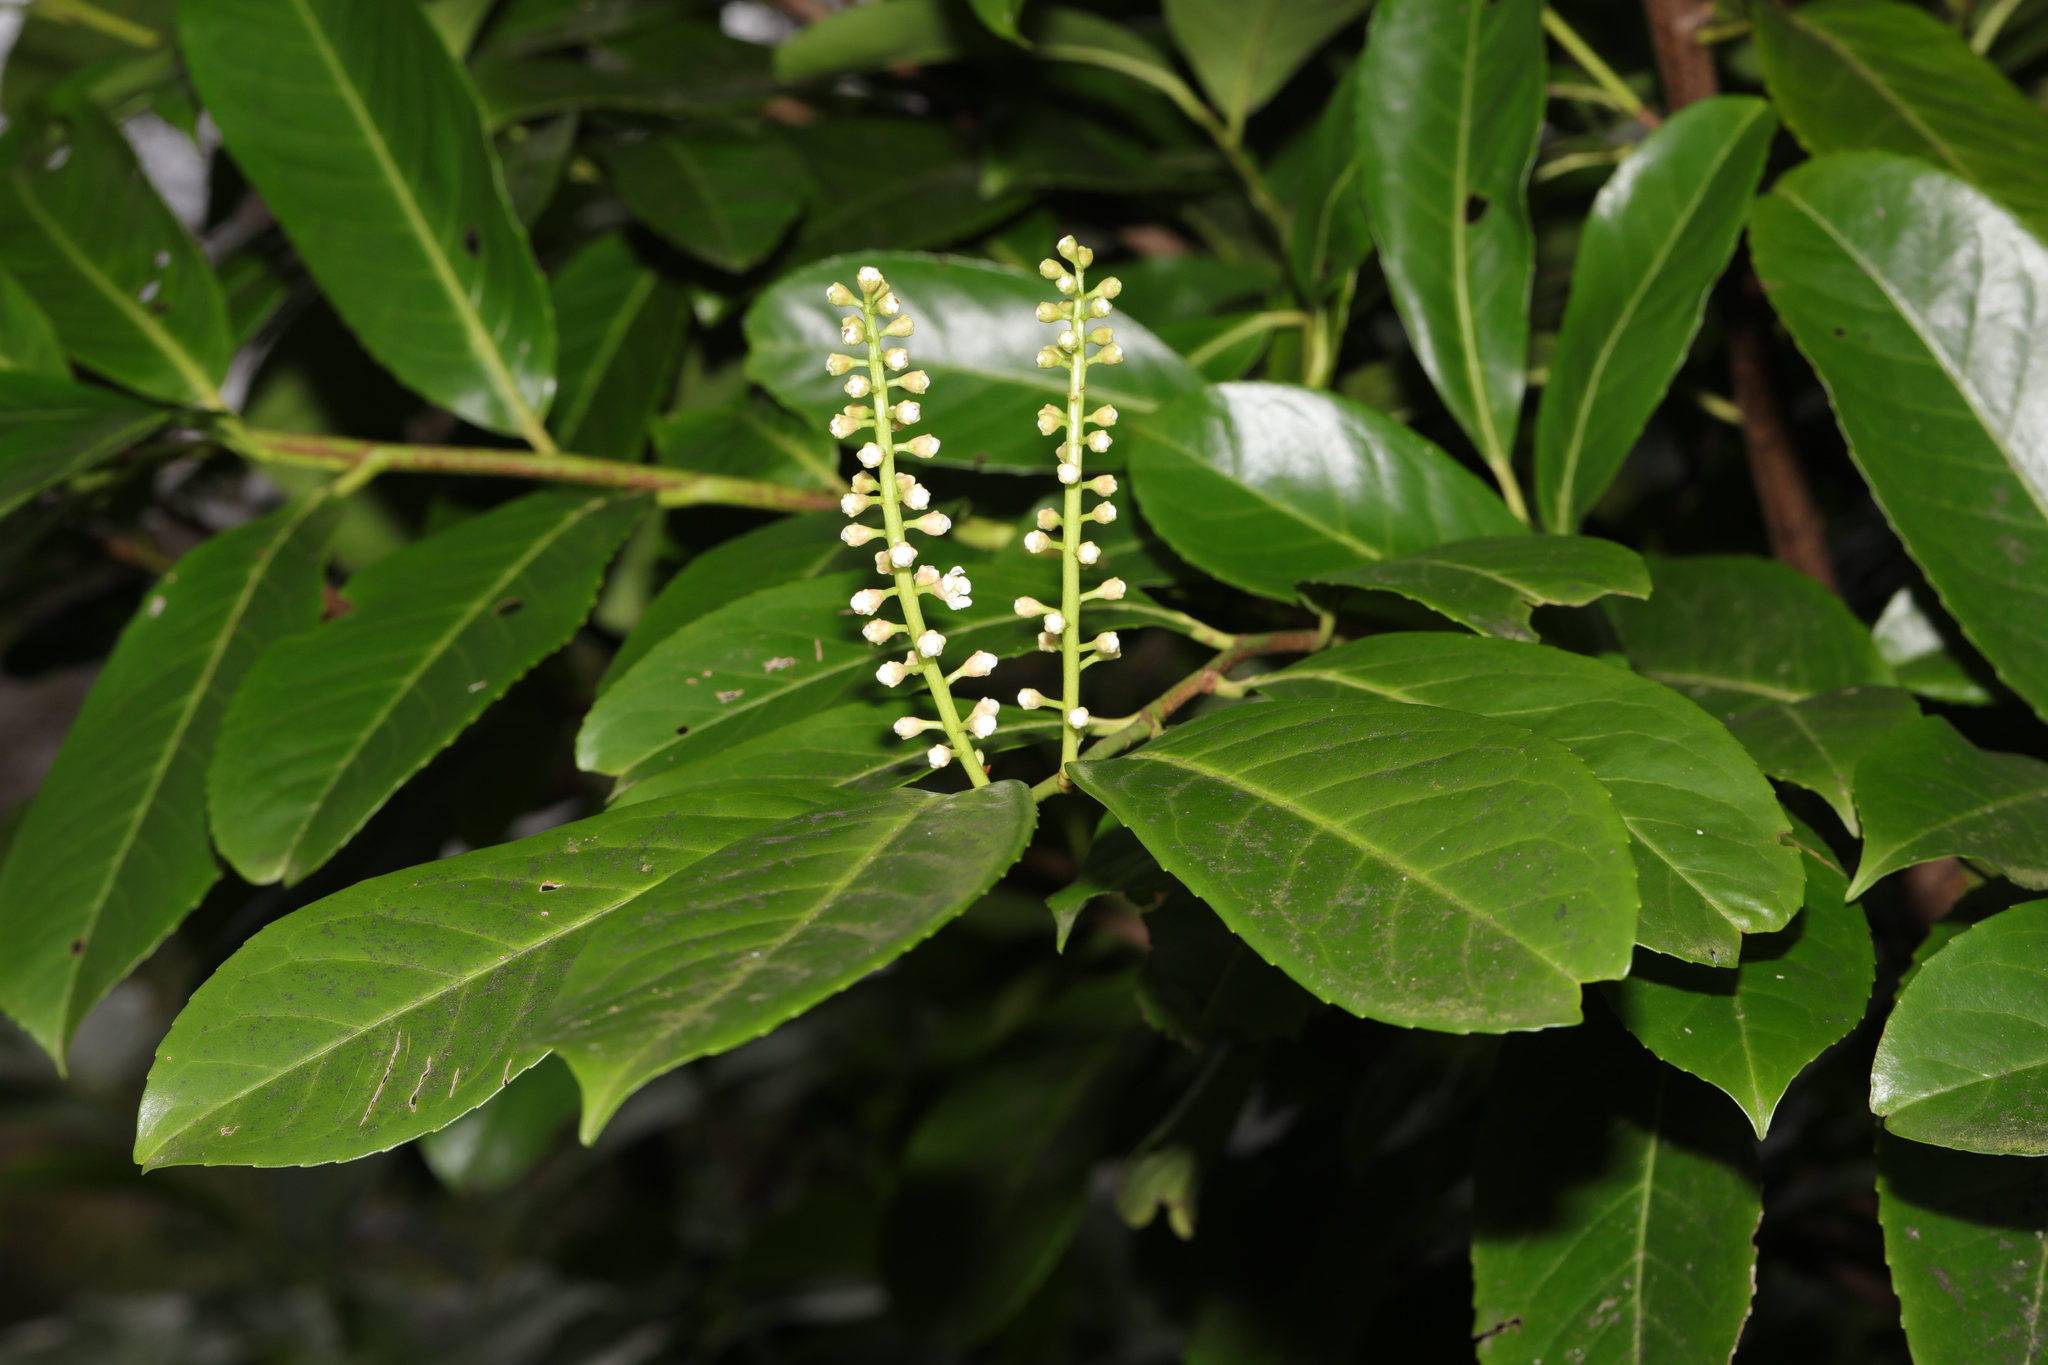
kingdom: Plantae
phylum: Tracheophyta
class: Magnoliopsida
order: Rosales
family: Rosaceae
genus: Prunus
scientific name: Prunus laurocerasus
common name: Cherry laurel
